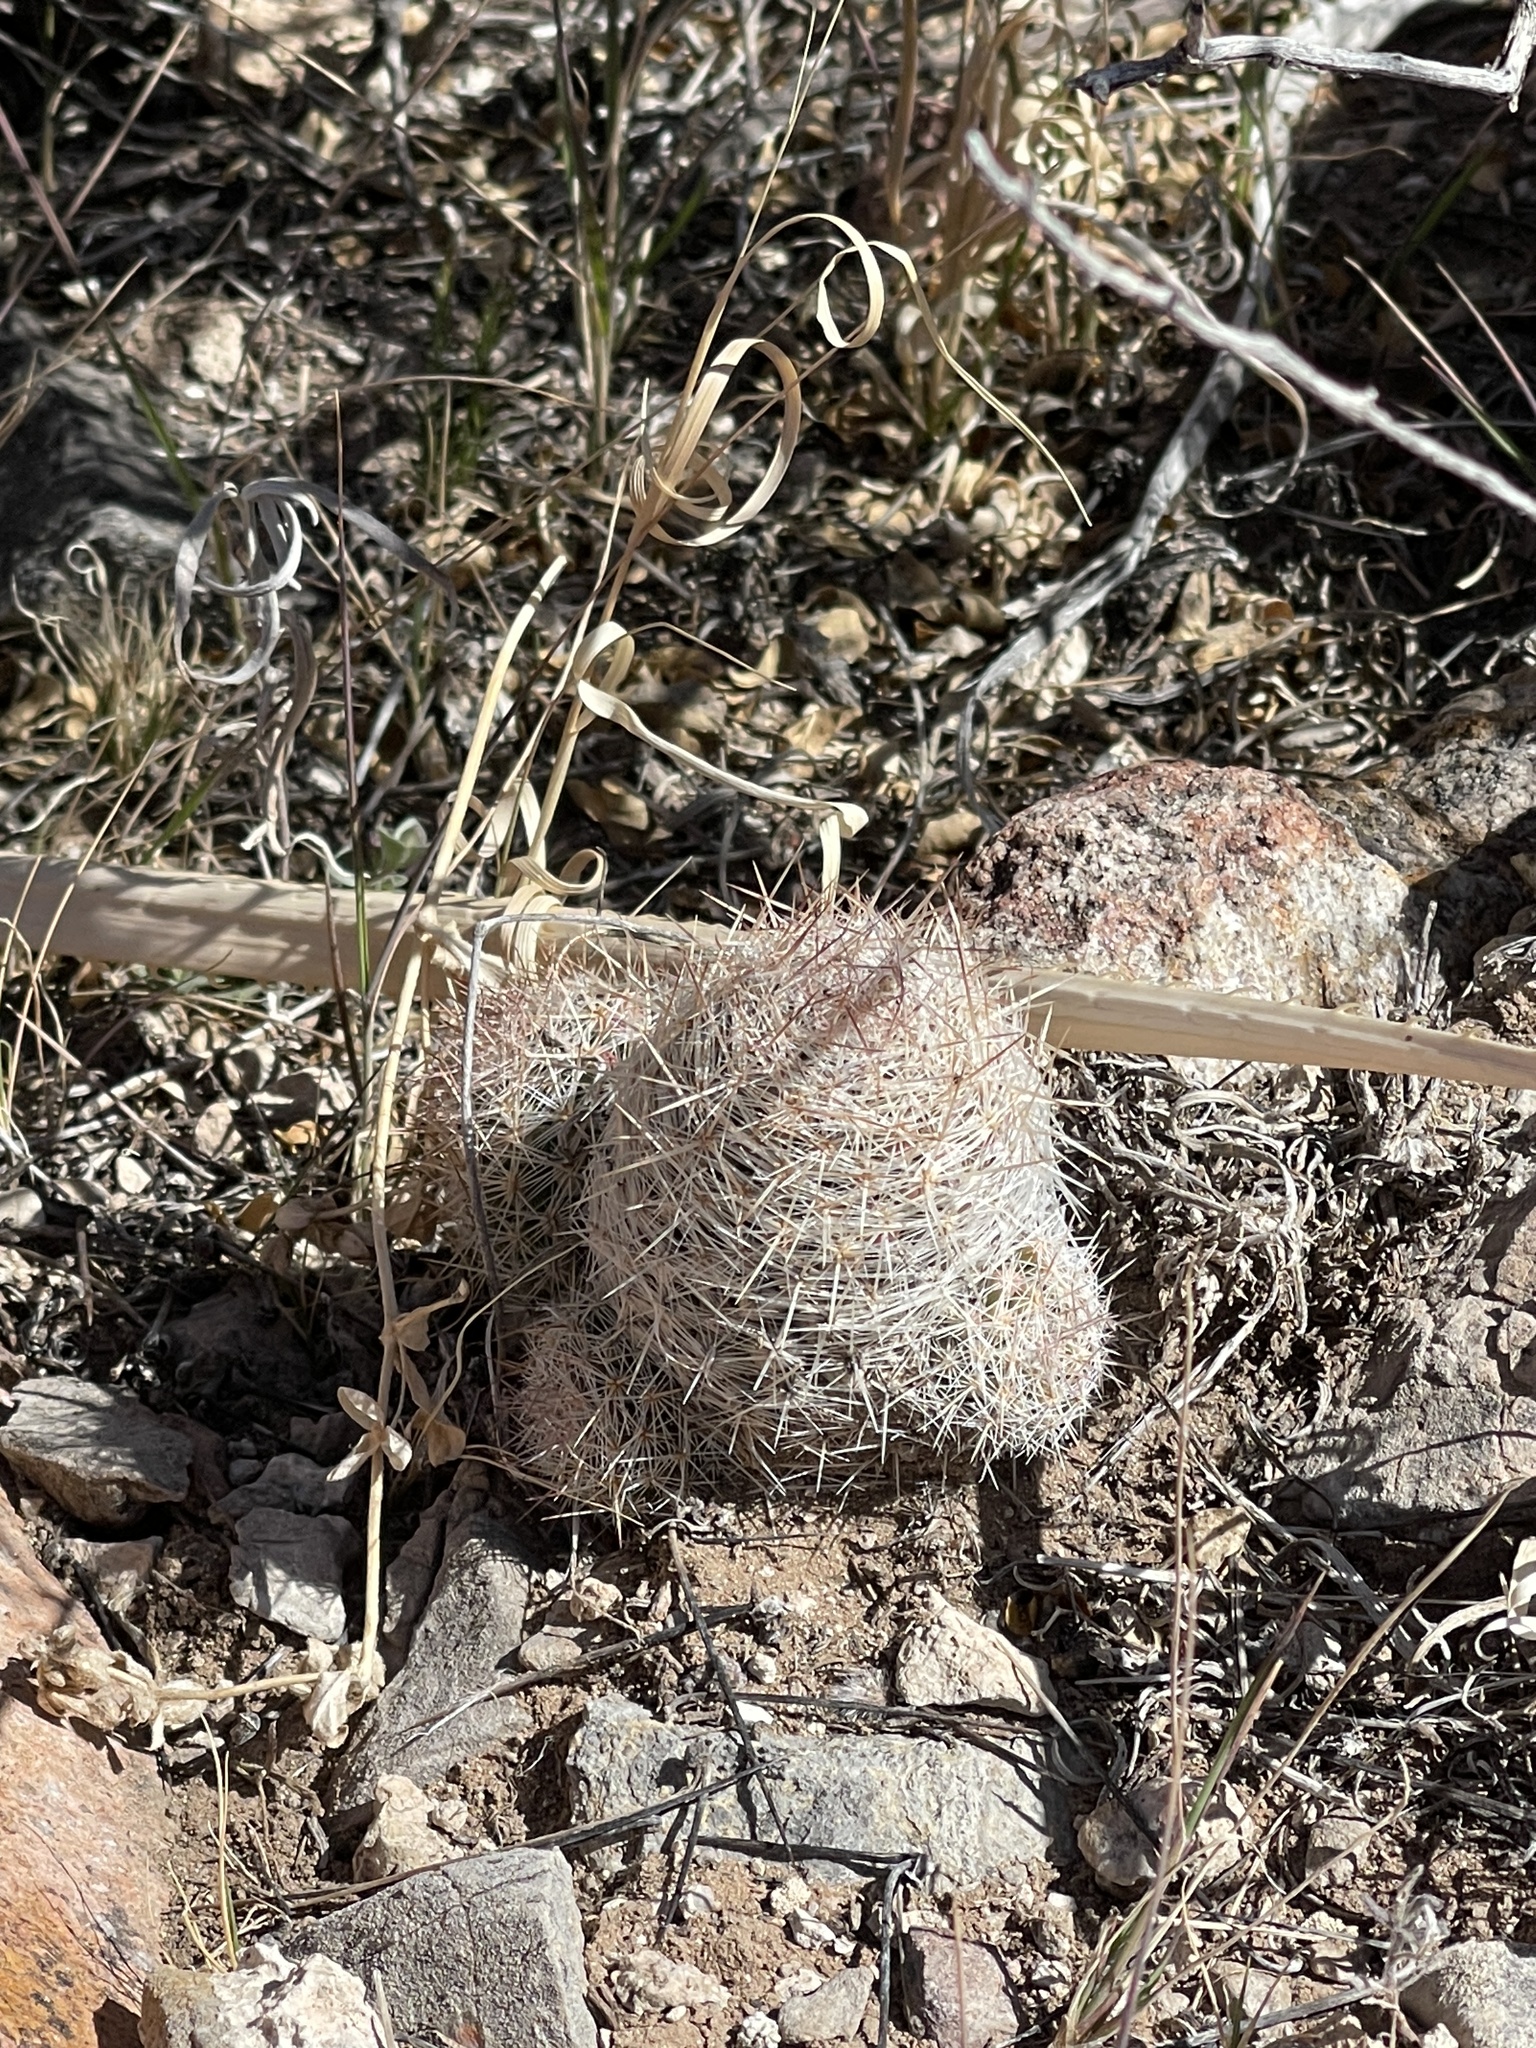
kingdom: Plantae
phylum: Tracheophyta
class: Magnoliopsida
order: Caryophyllales
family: Cactaceae
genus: Pelecyphora
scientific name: Pelecyphora tuberculosa
